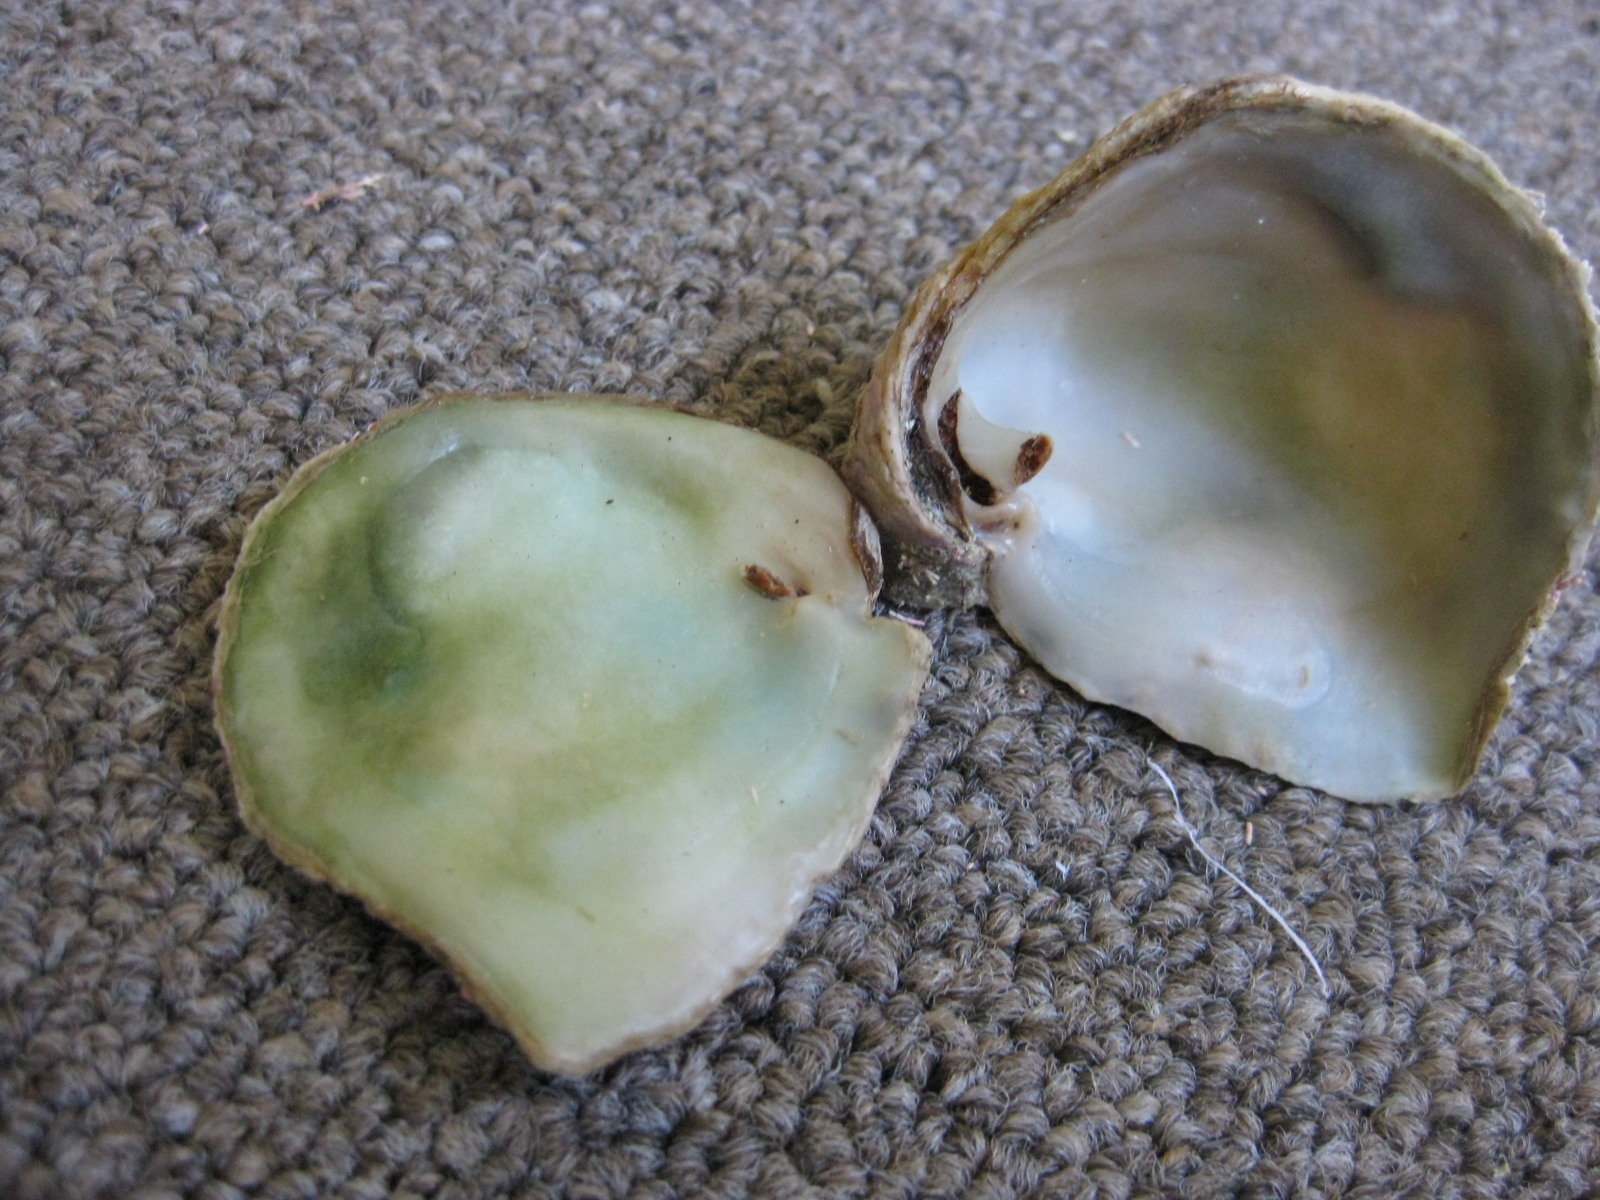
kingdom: Animalia
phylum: Mollusca
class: Bivalvia
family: Cleidothaeridae
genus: Cleidothaerus
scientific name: Cleidothaerus albidus
